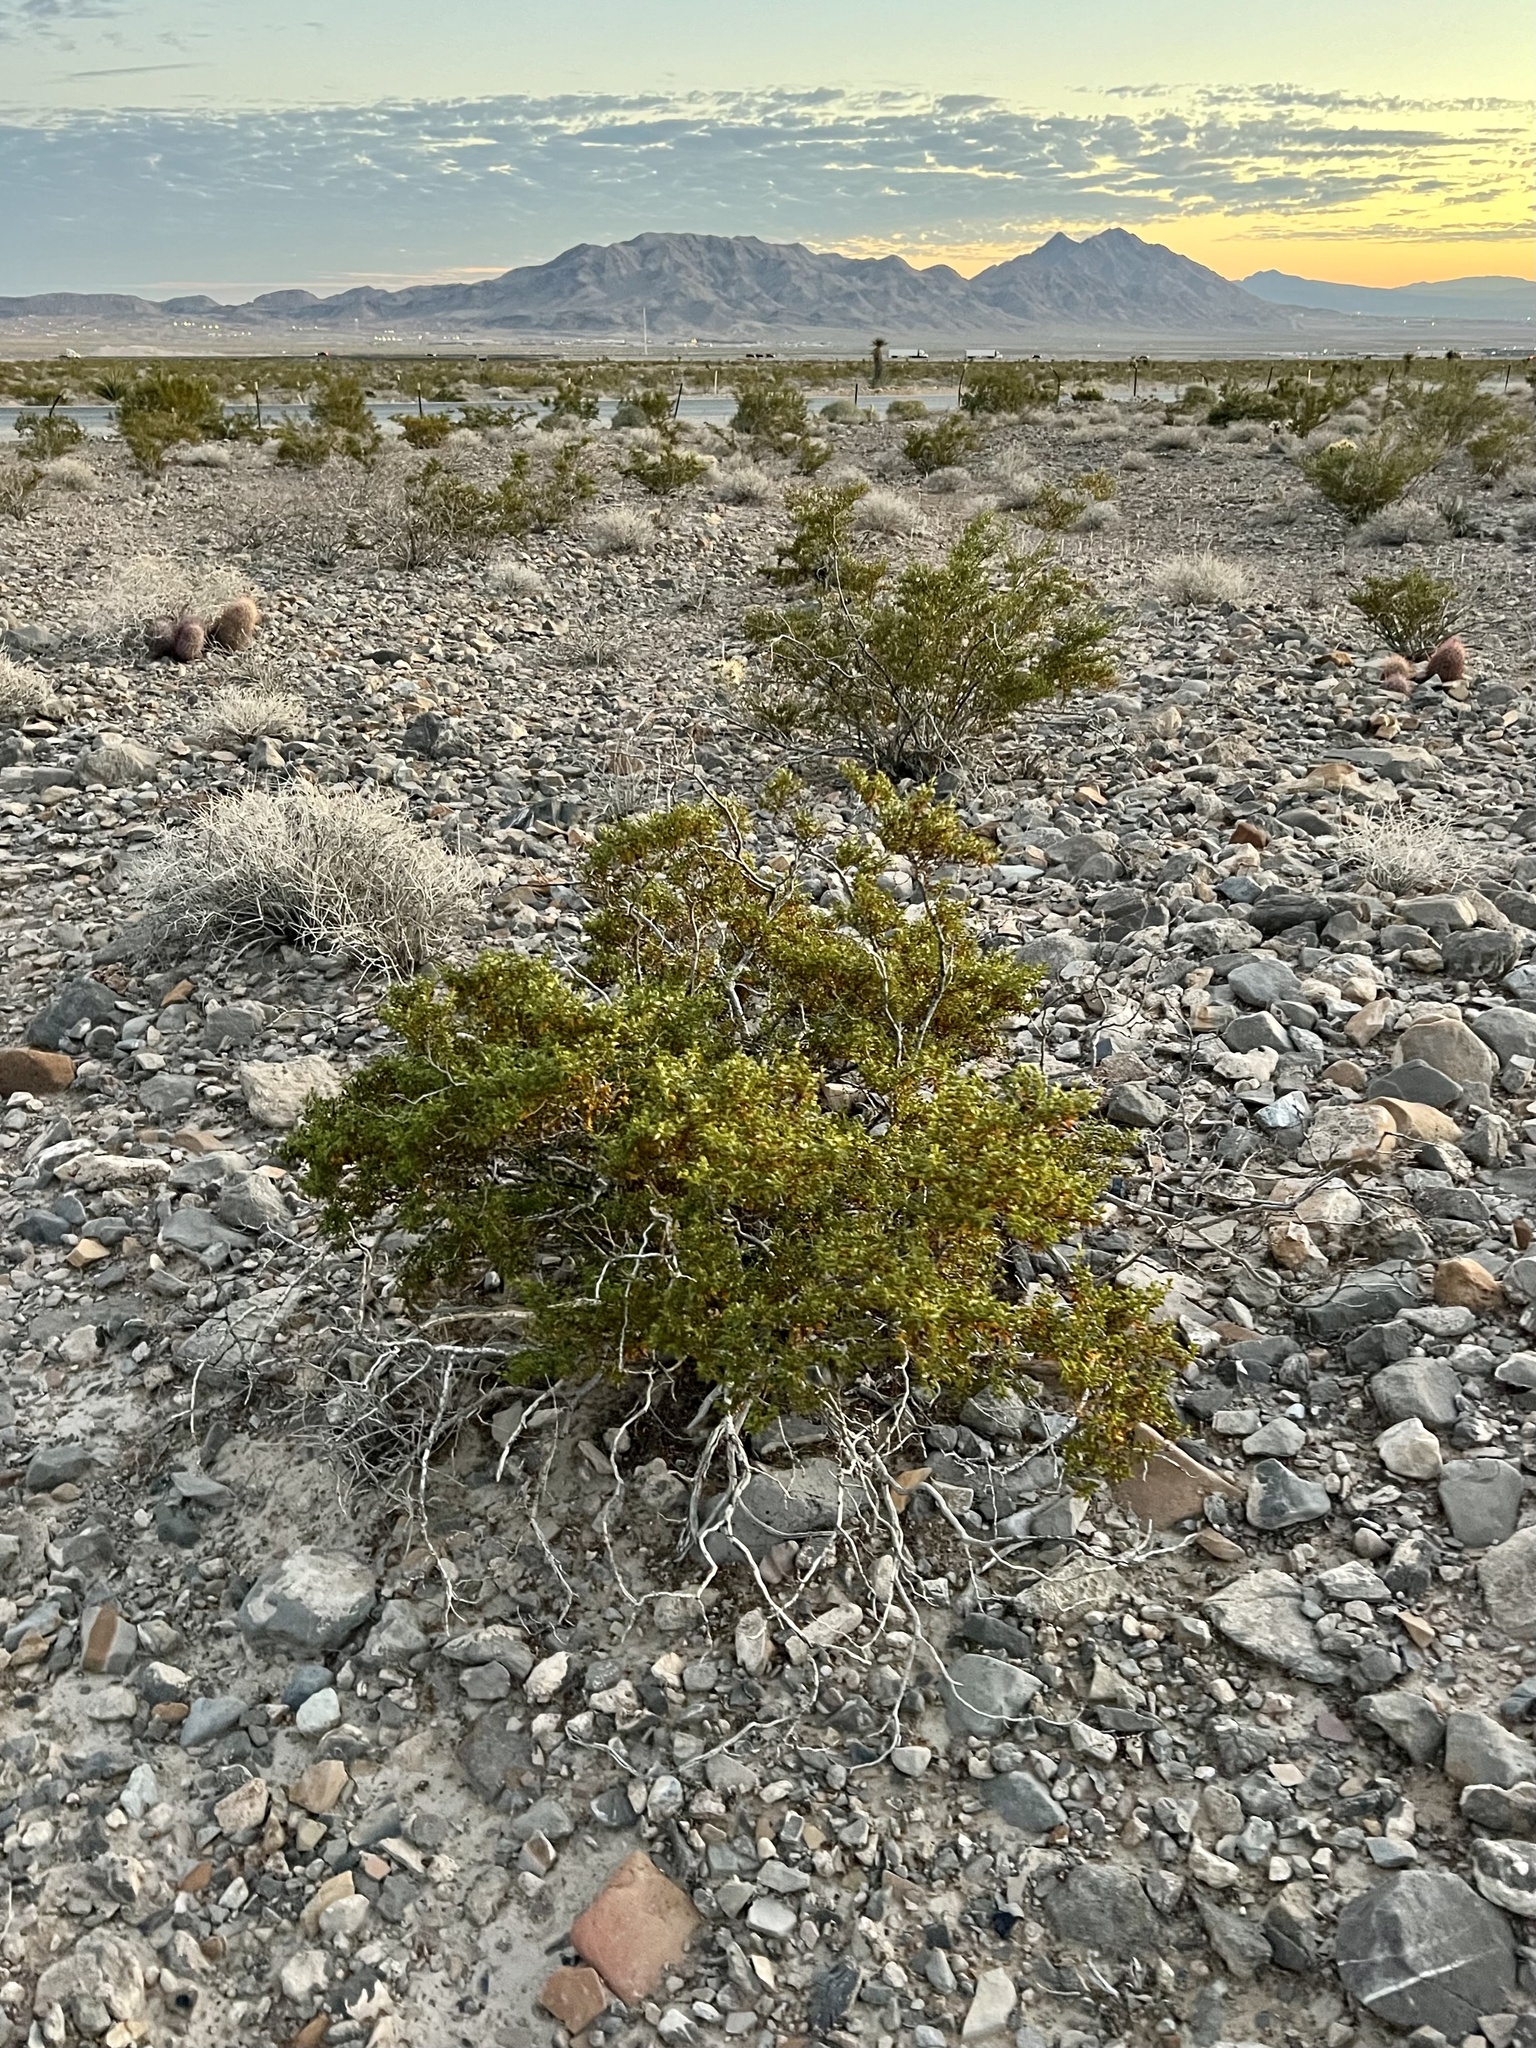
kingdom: Plantae
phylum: Tracheophyta
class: Magnoliopsida
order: Zygophyllales
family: Zygophyllaceae
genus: Larrea
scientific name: Larrea tridentata
